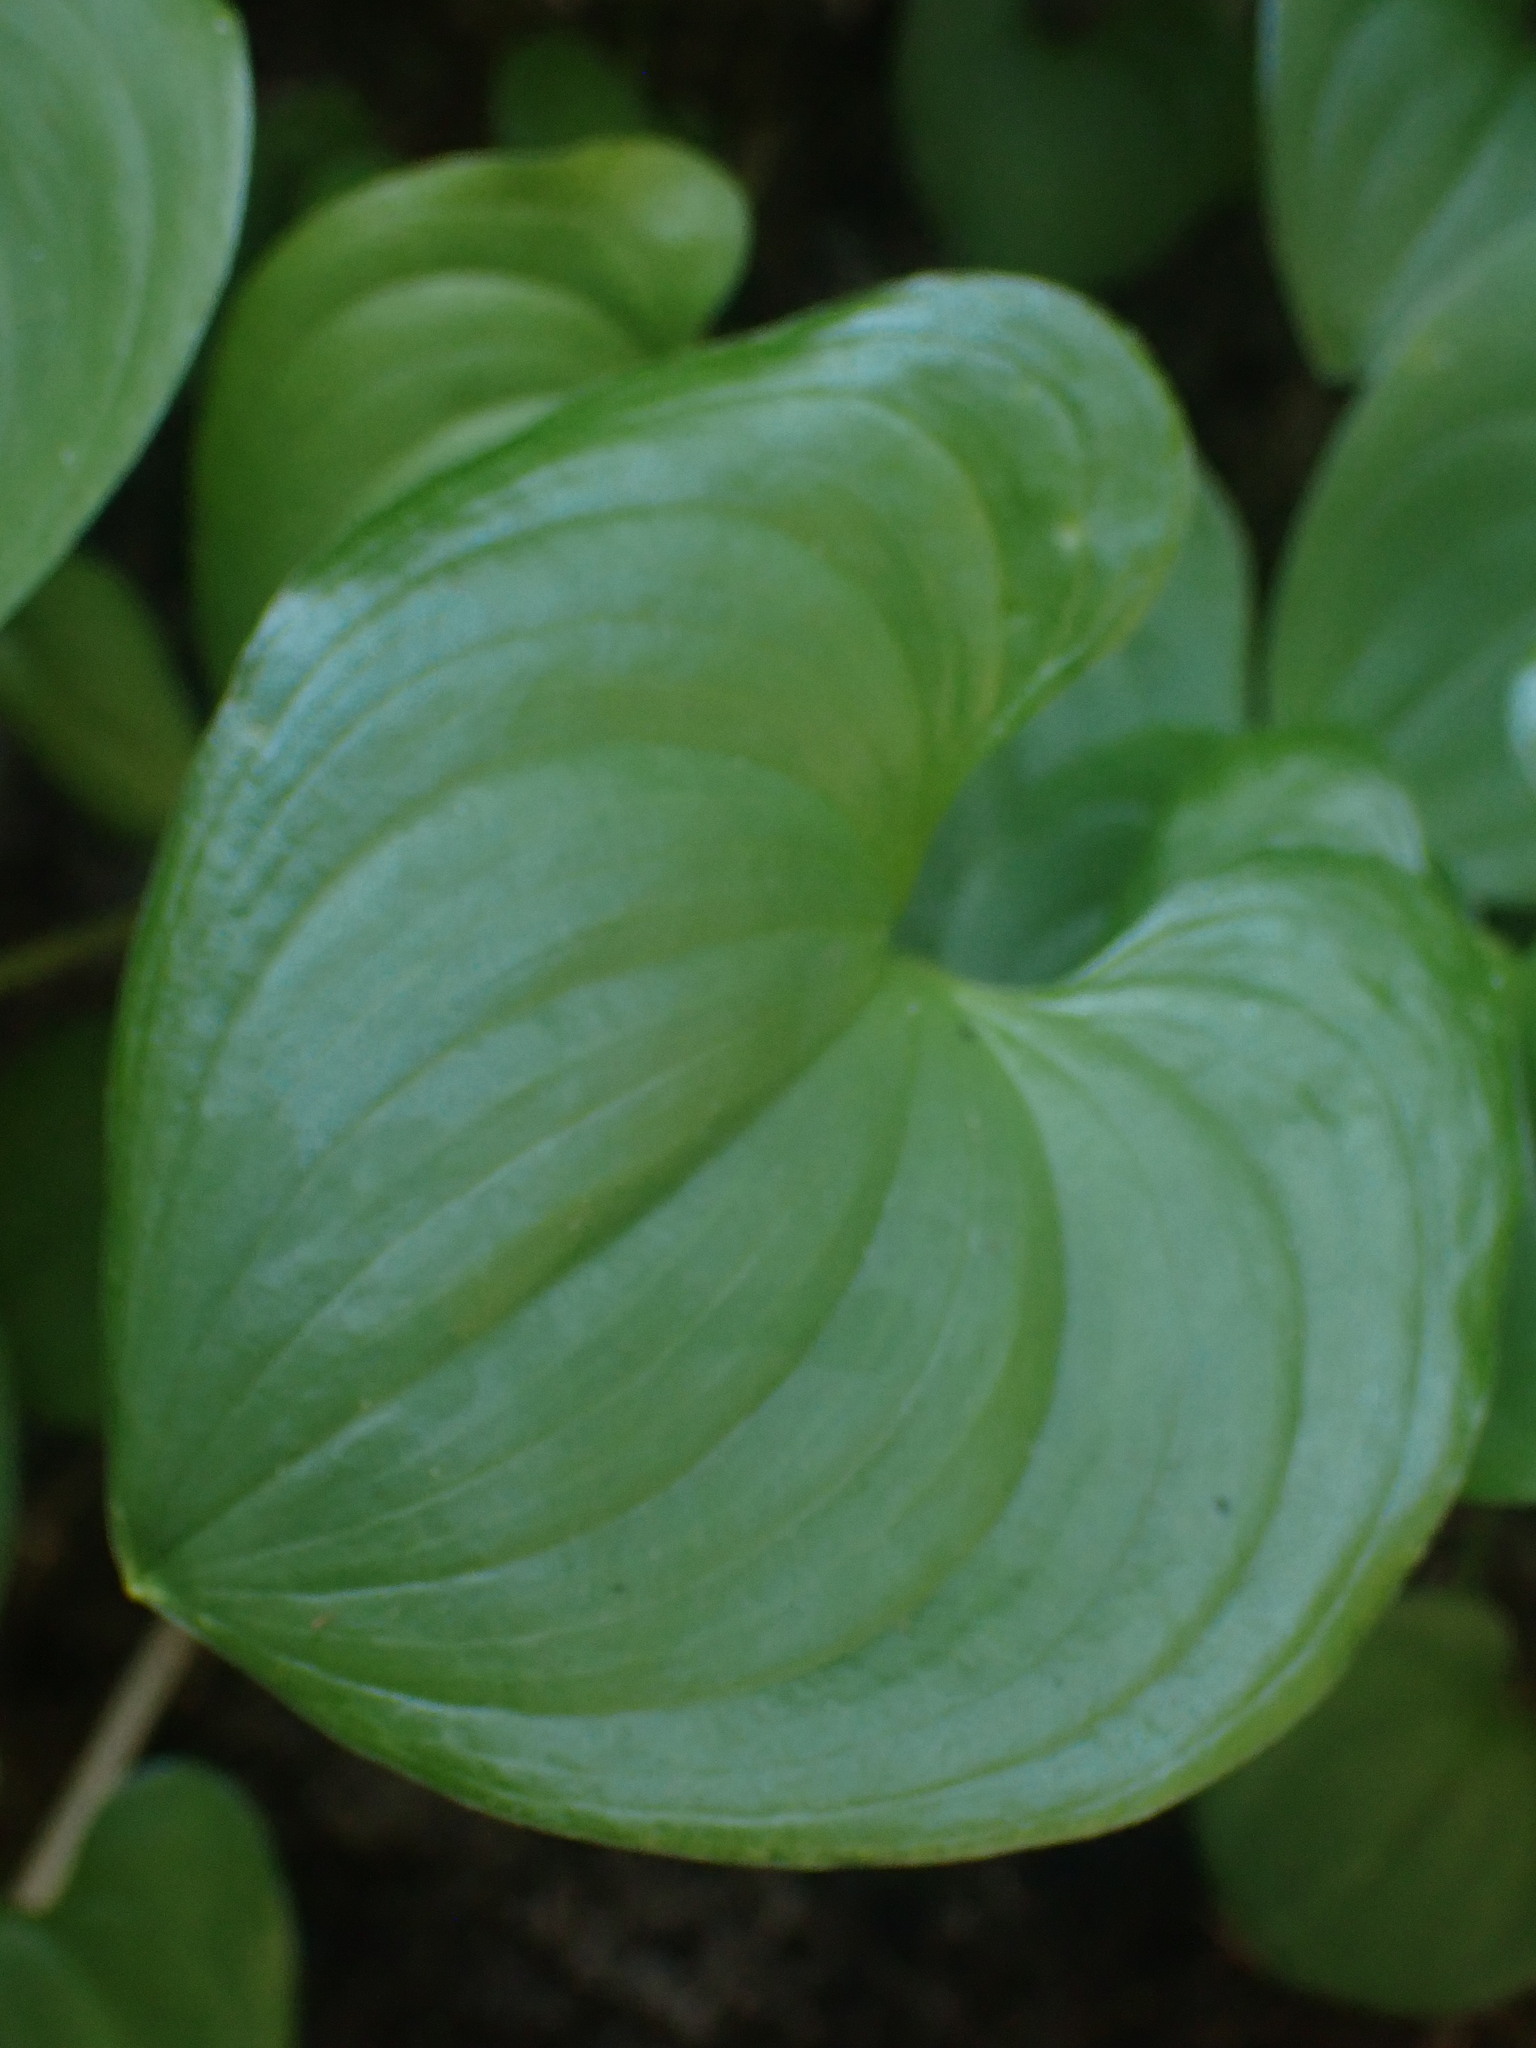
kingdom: Plantae
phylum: Tracheophyta
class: Liliopsida
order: Asparagales
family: Asparagaceae
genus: Maianthemum
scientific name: Maianthemum dilatatum
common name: False lily-of-the-valley
